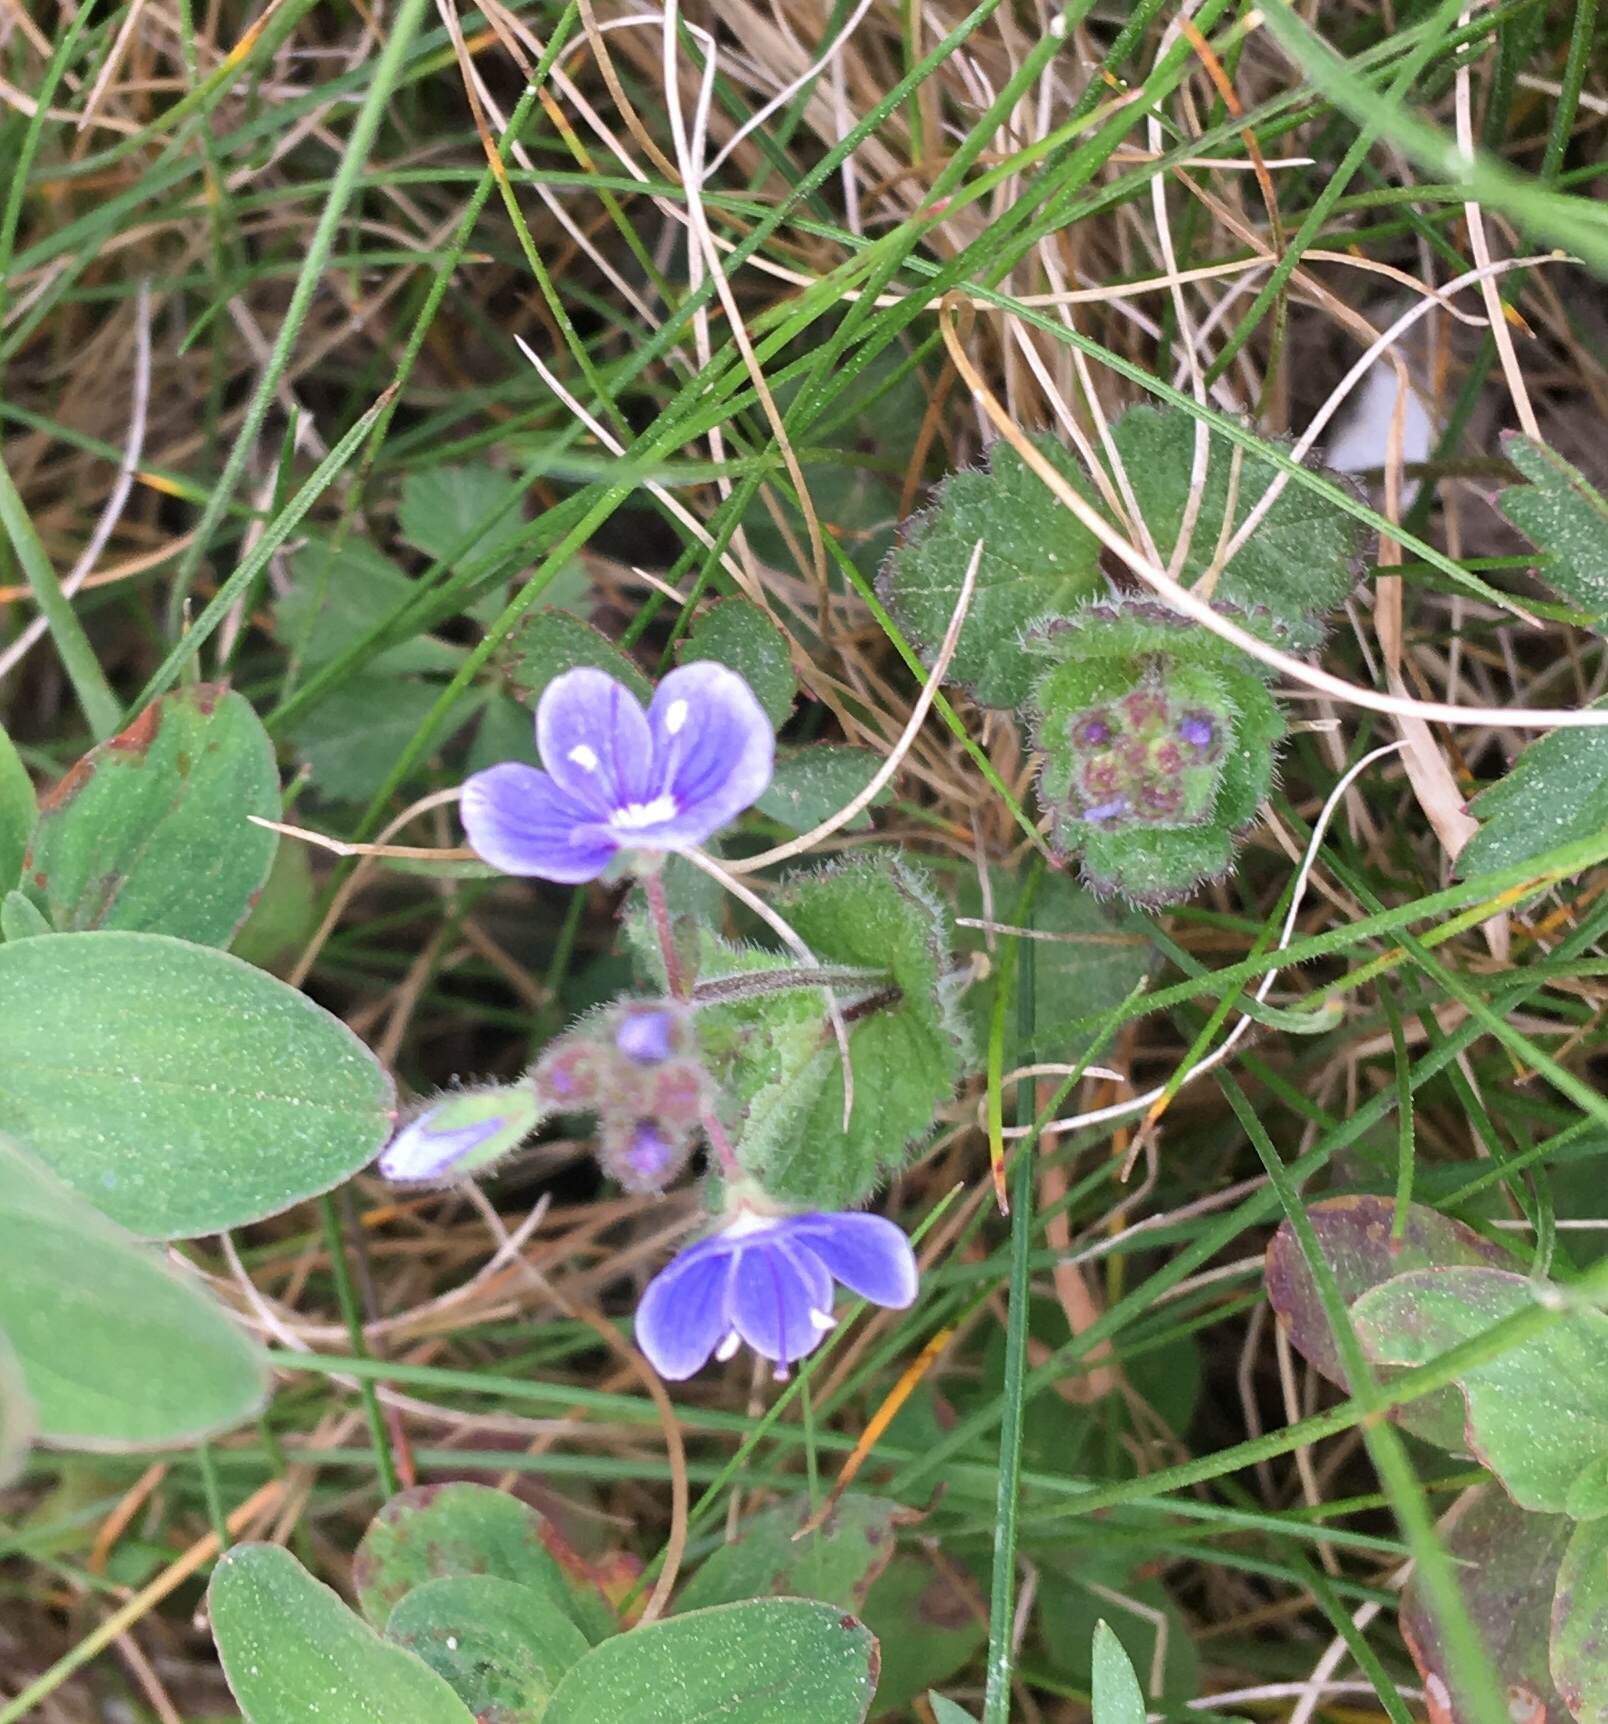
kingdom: Plantae
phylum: Tracheophyta
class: Magnoliopsida
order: Lamiales
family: Plantaginaceae
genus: Veronica
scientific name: Veronica chamaedrys
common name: Germander speedwell
